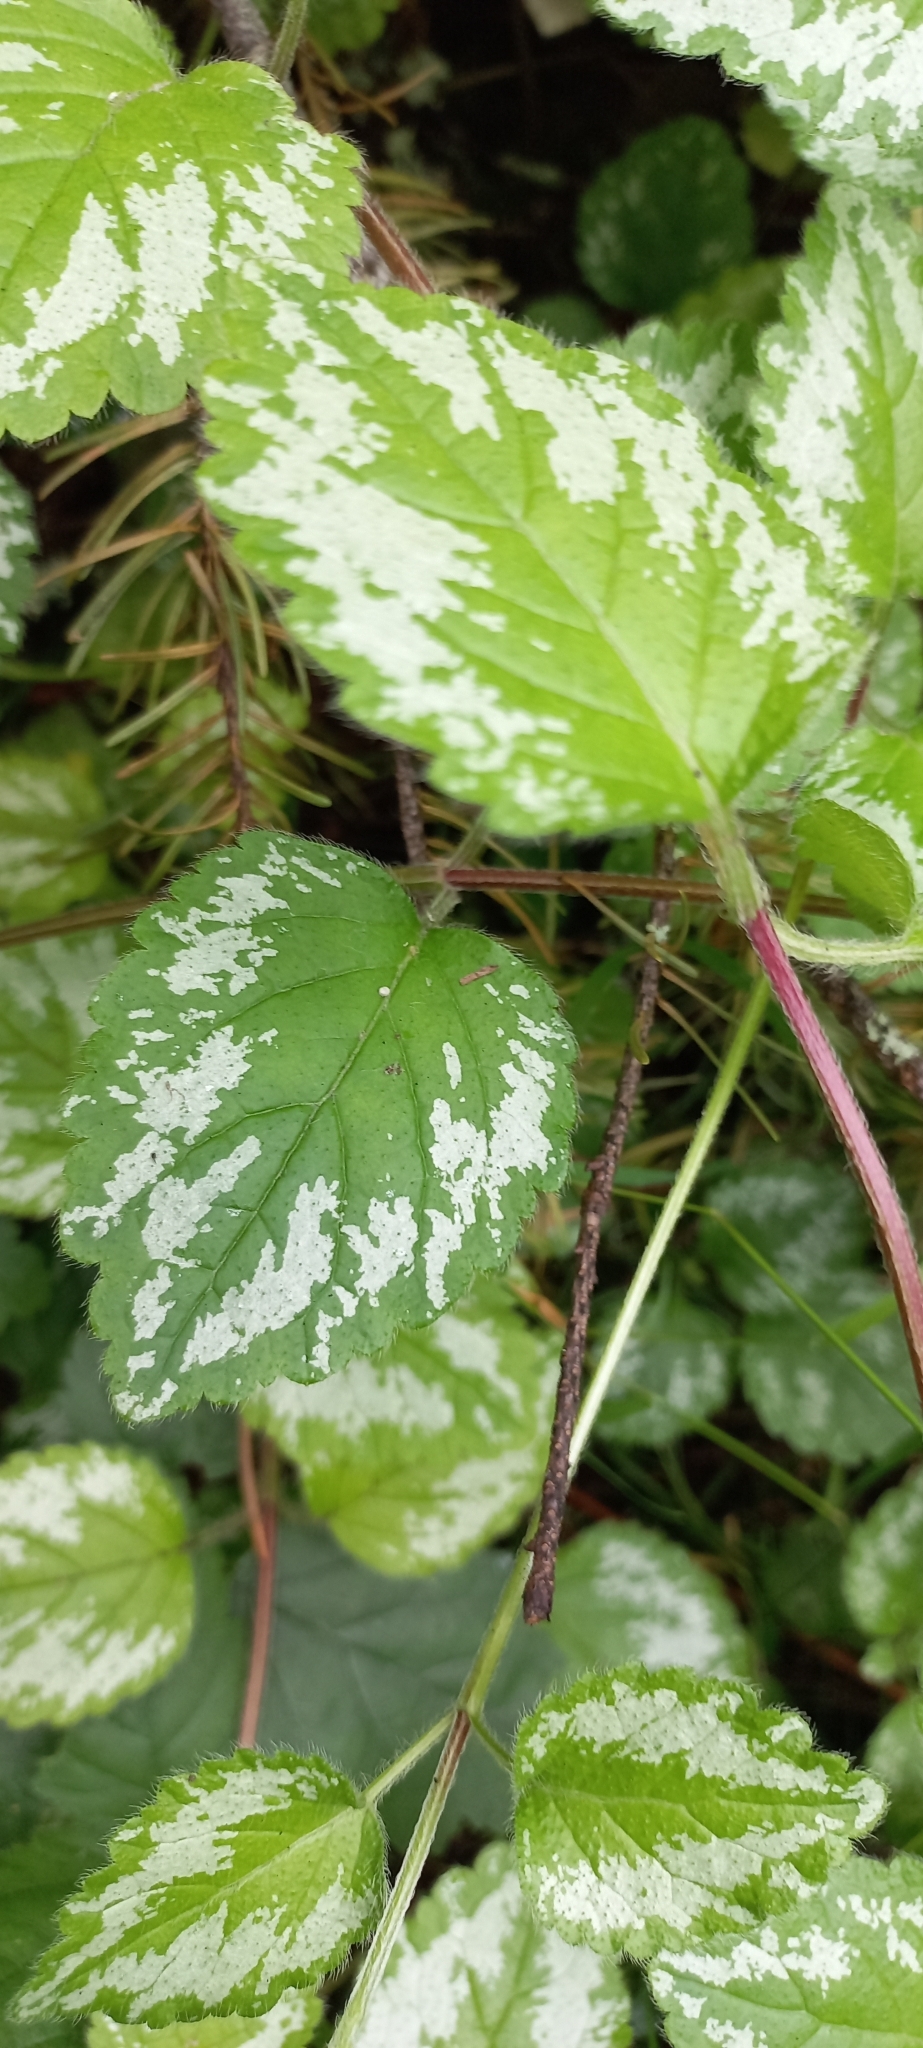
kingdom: Plantae
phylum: Tracheophyta
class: Magnoliopsida
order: Lamiales
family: Lamiaceae
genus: Lamium
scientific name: Lamium galeobdolon
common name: Yellow archangel
